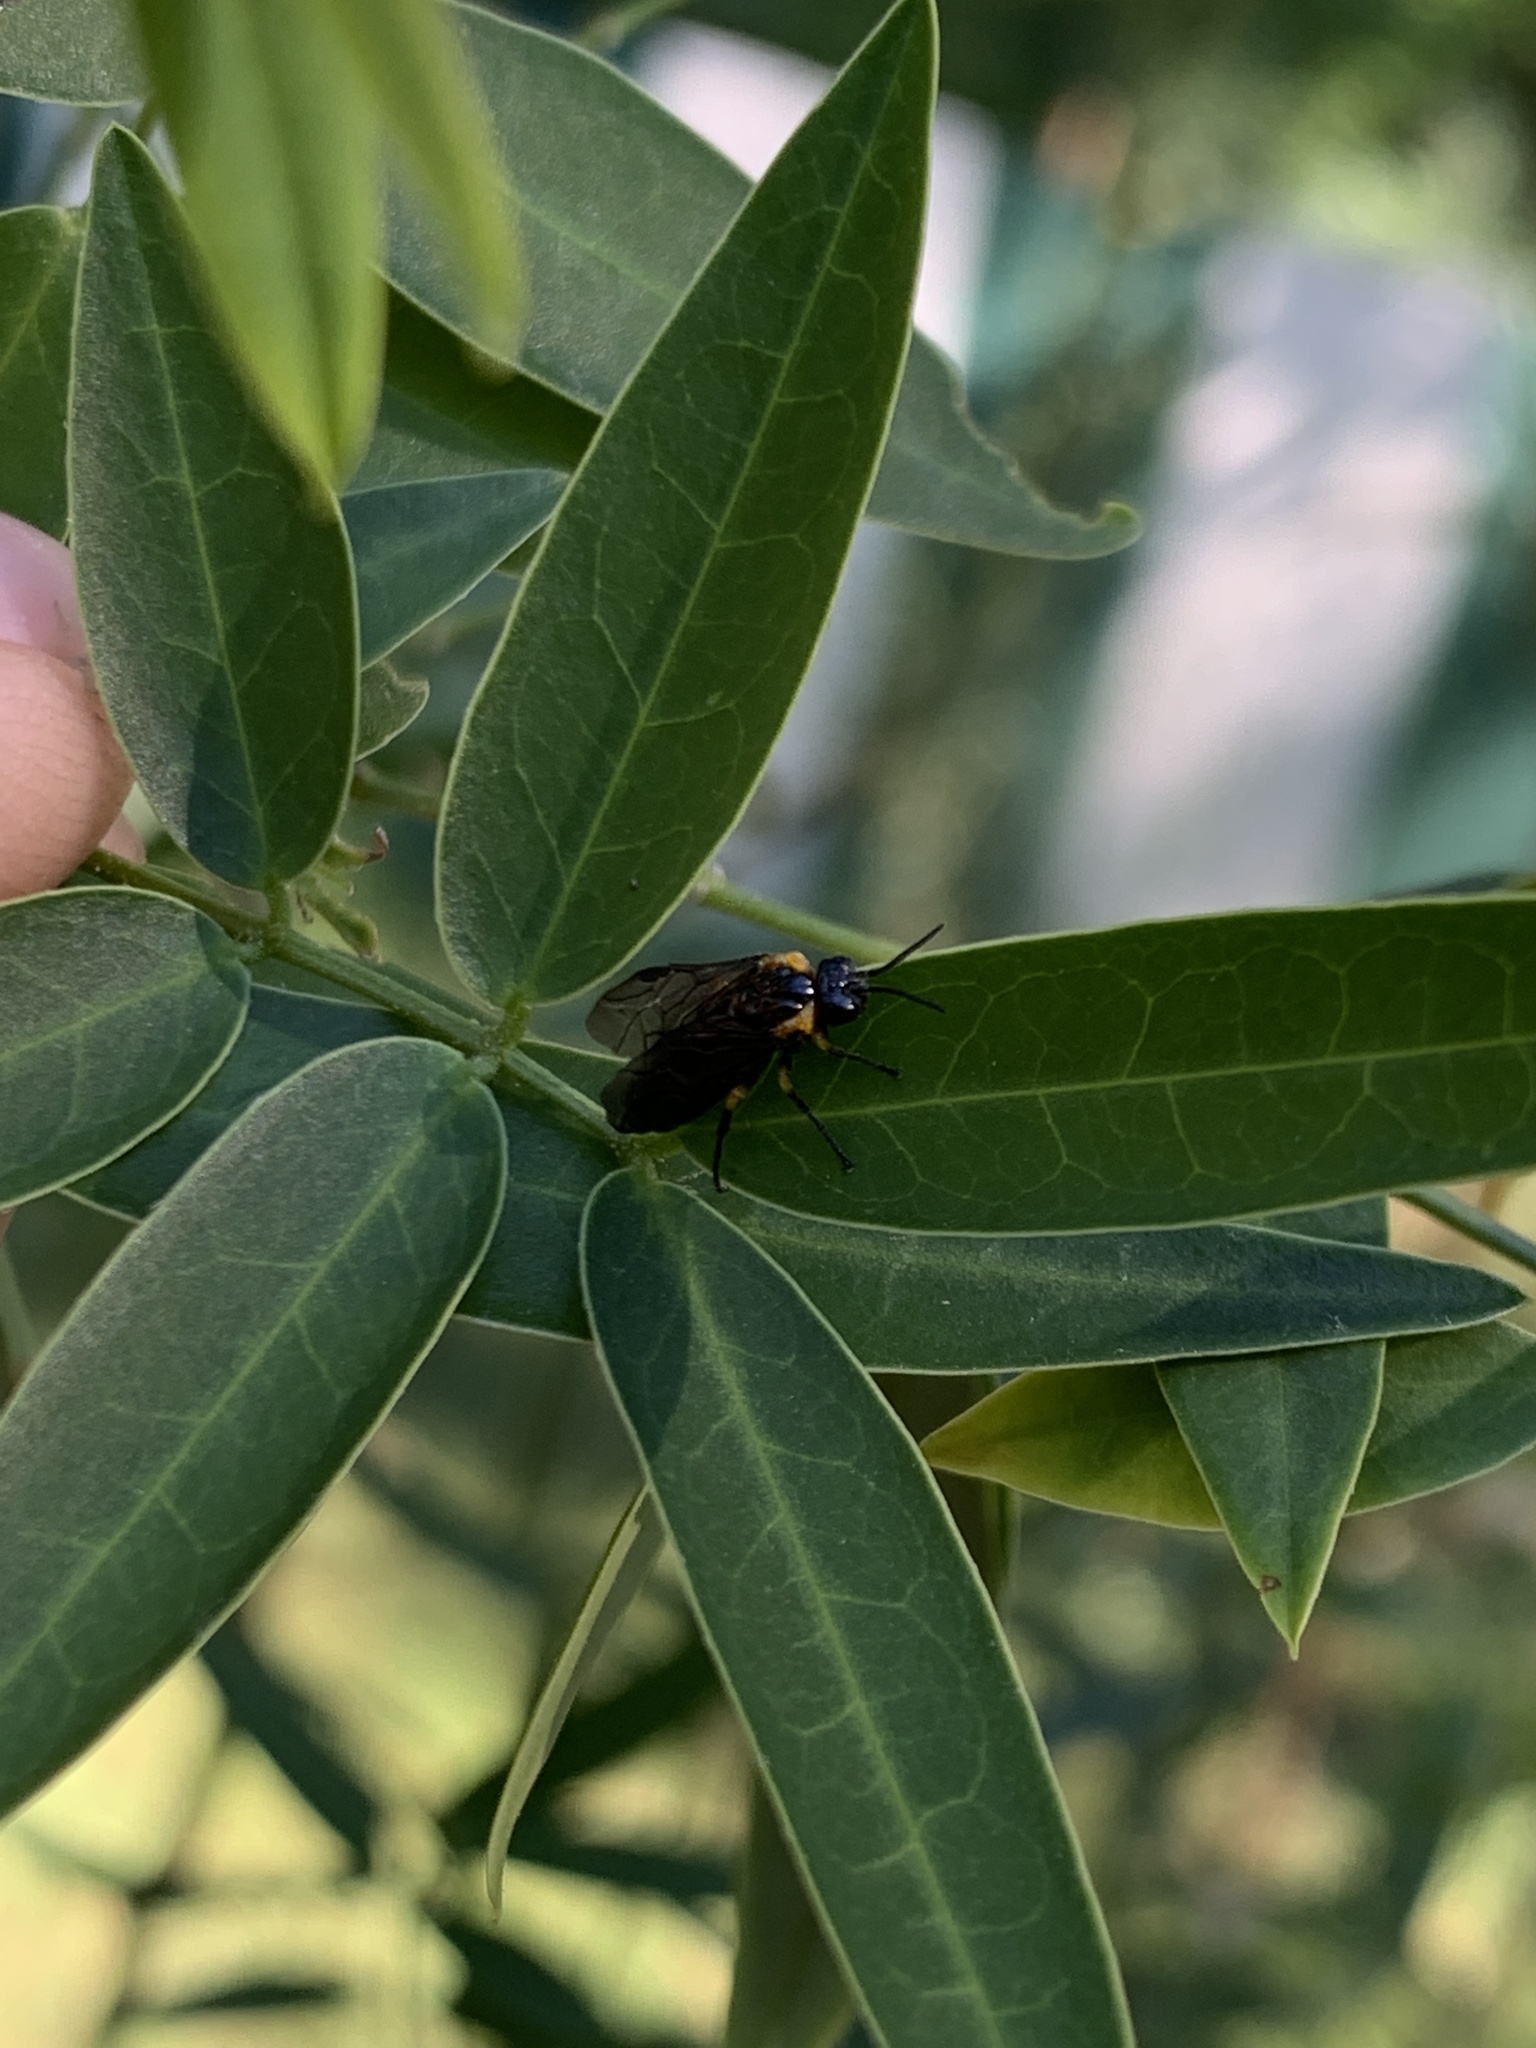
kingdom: Animalia
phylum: Arthropoda
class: Insecta
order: Hymenoptera
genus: Adurgoa
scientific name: Adurgoa
